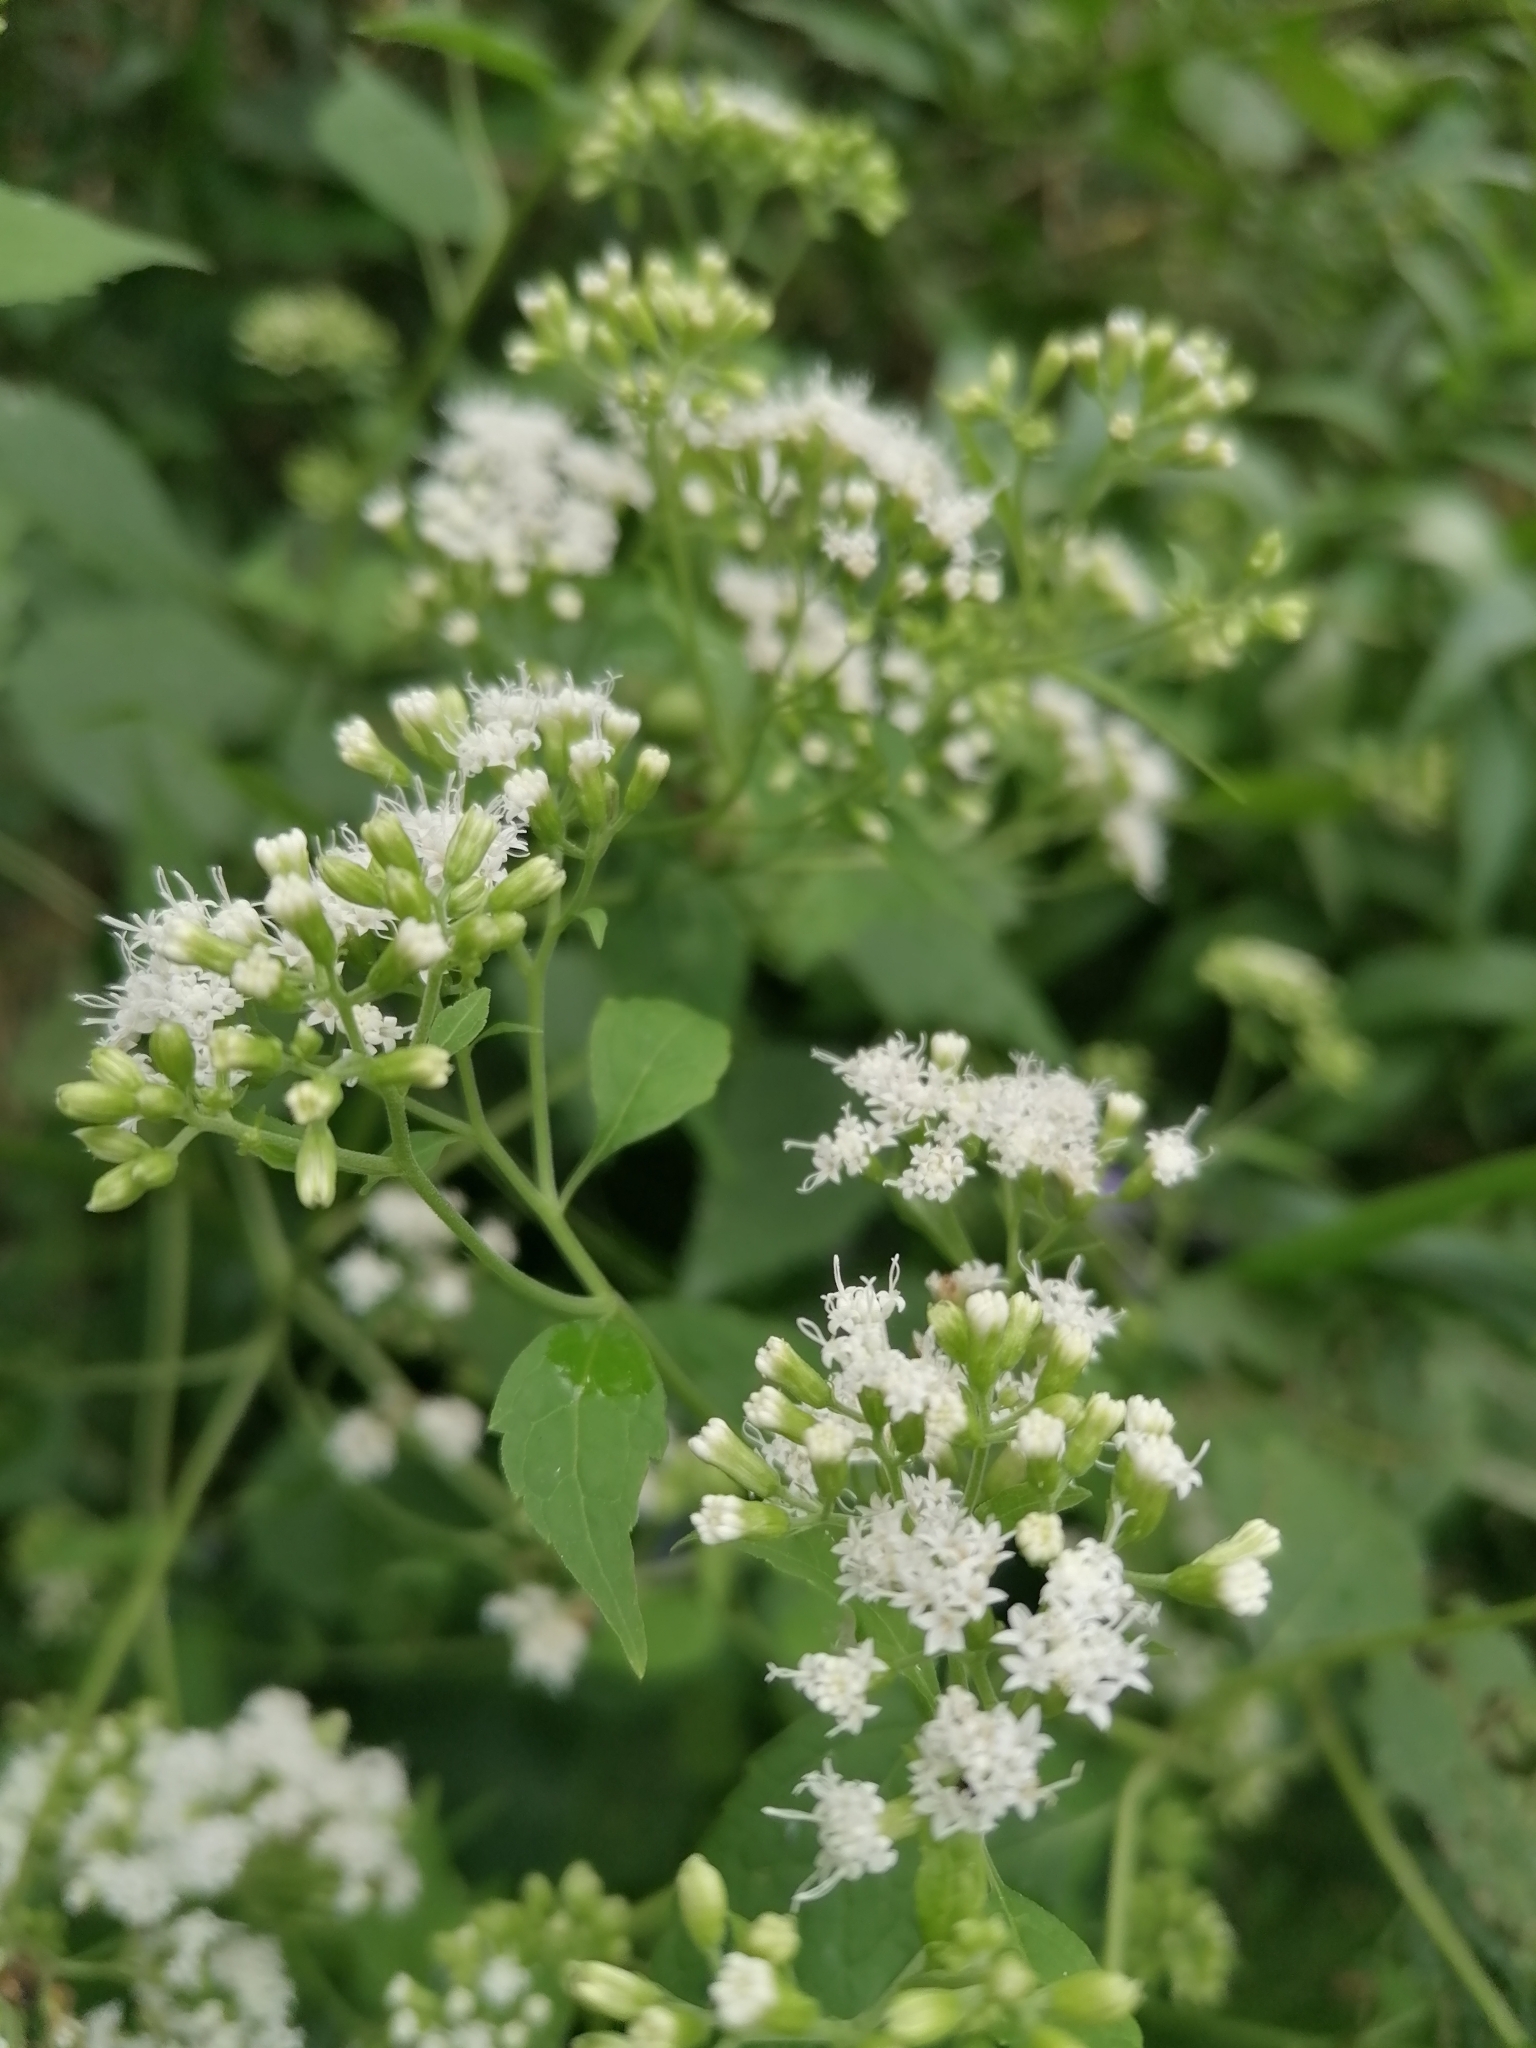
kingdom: Plantae
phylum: Tracheophyta
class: Magnoliopsida
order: Asterales
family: Asteraceae
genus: Ageratina
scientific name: Ageratina altissima
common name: White snakeroot
